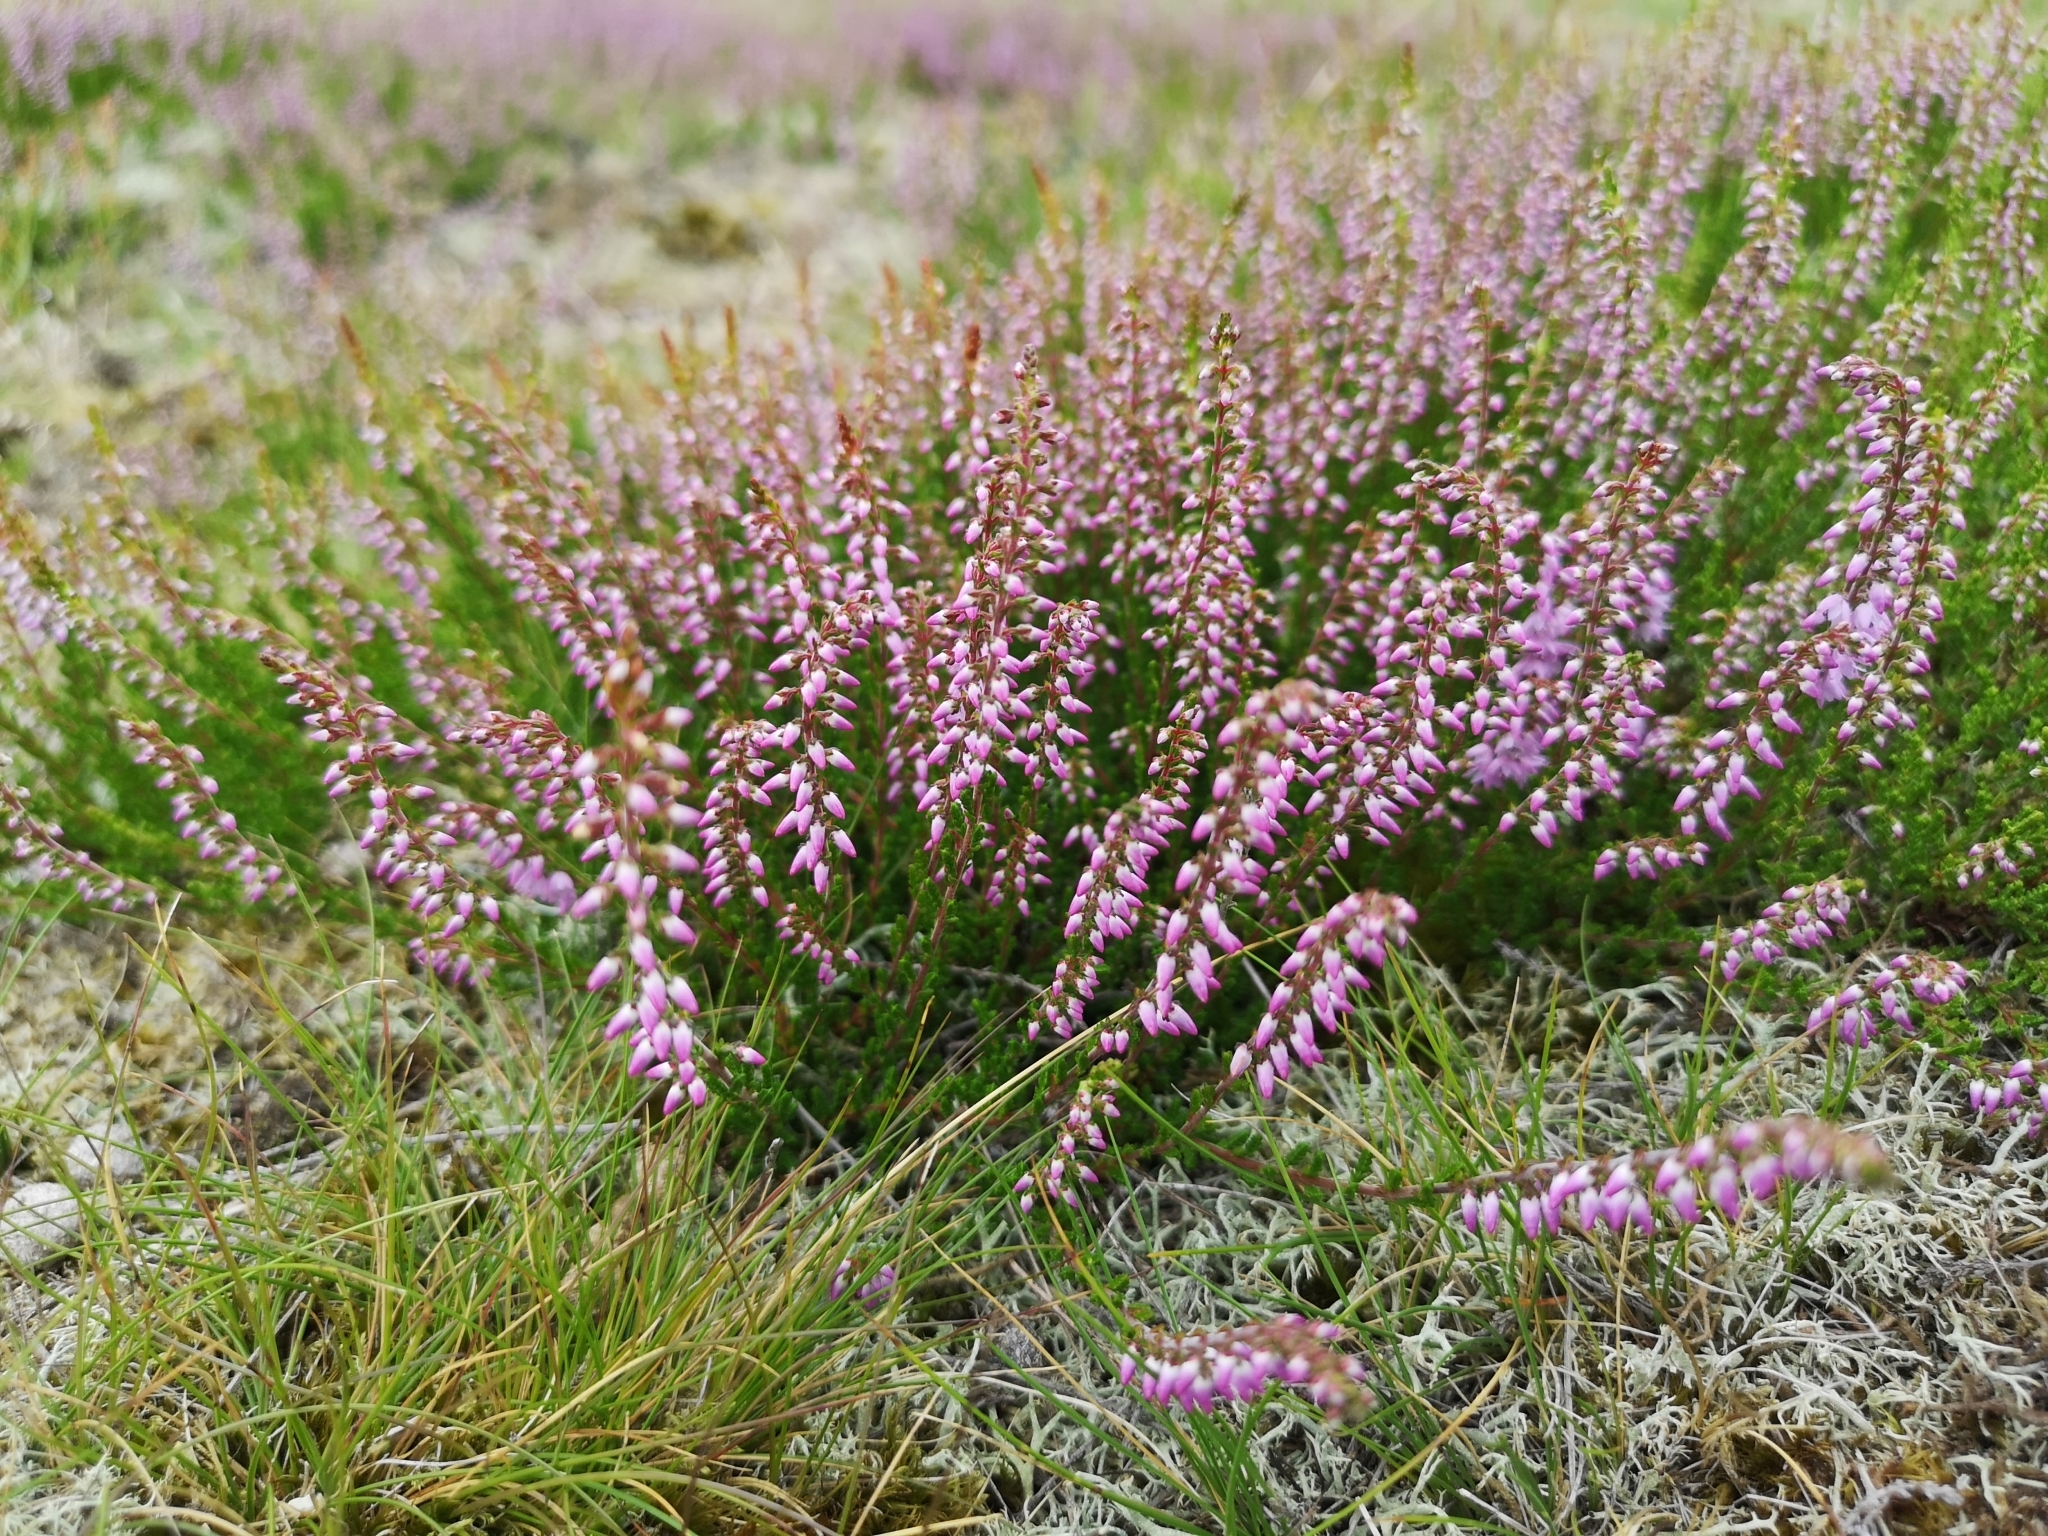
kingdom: Plantae
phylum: Tracheophyta
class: Magnoliopsida
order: Ericales
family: Ericaceae
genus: Calluna
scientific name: Calluna vulgaris
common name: Heather
